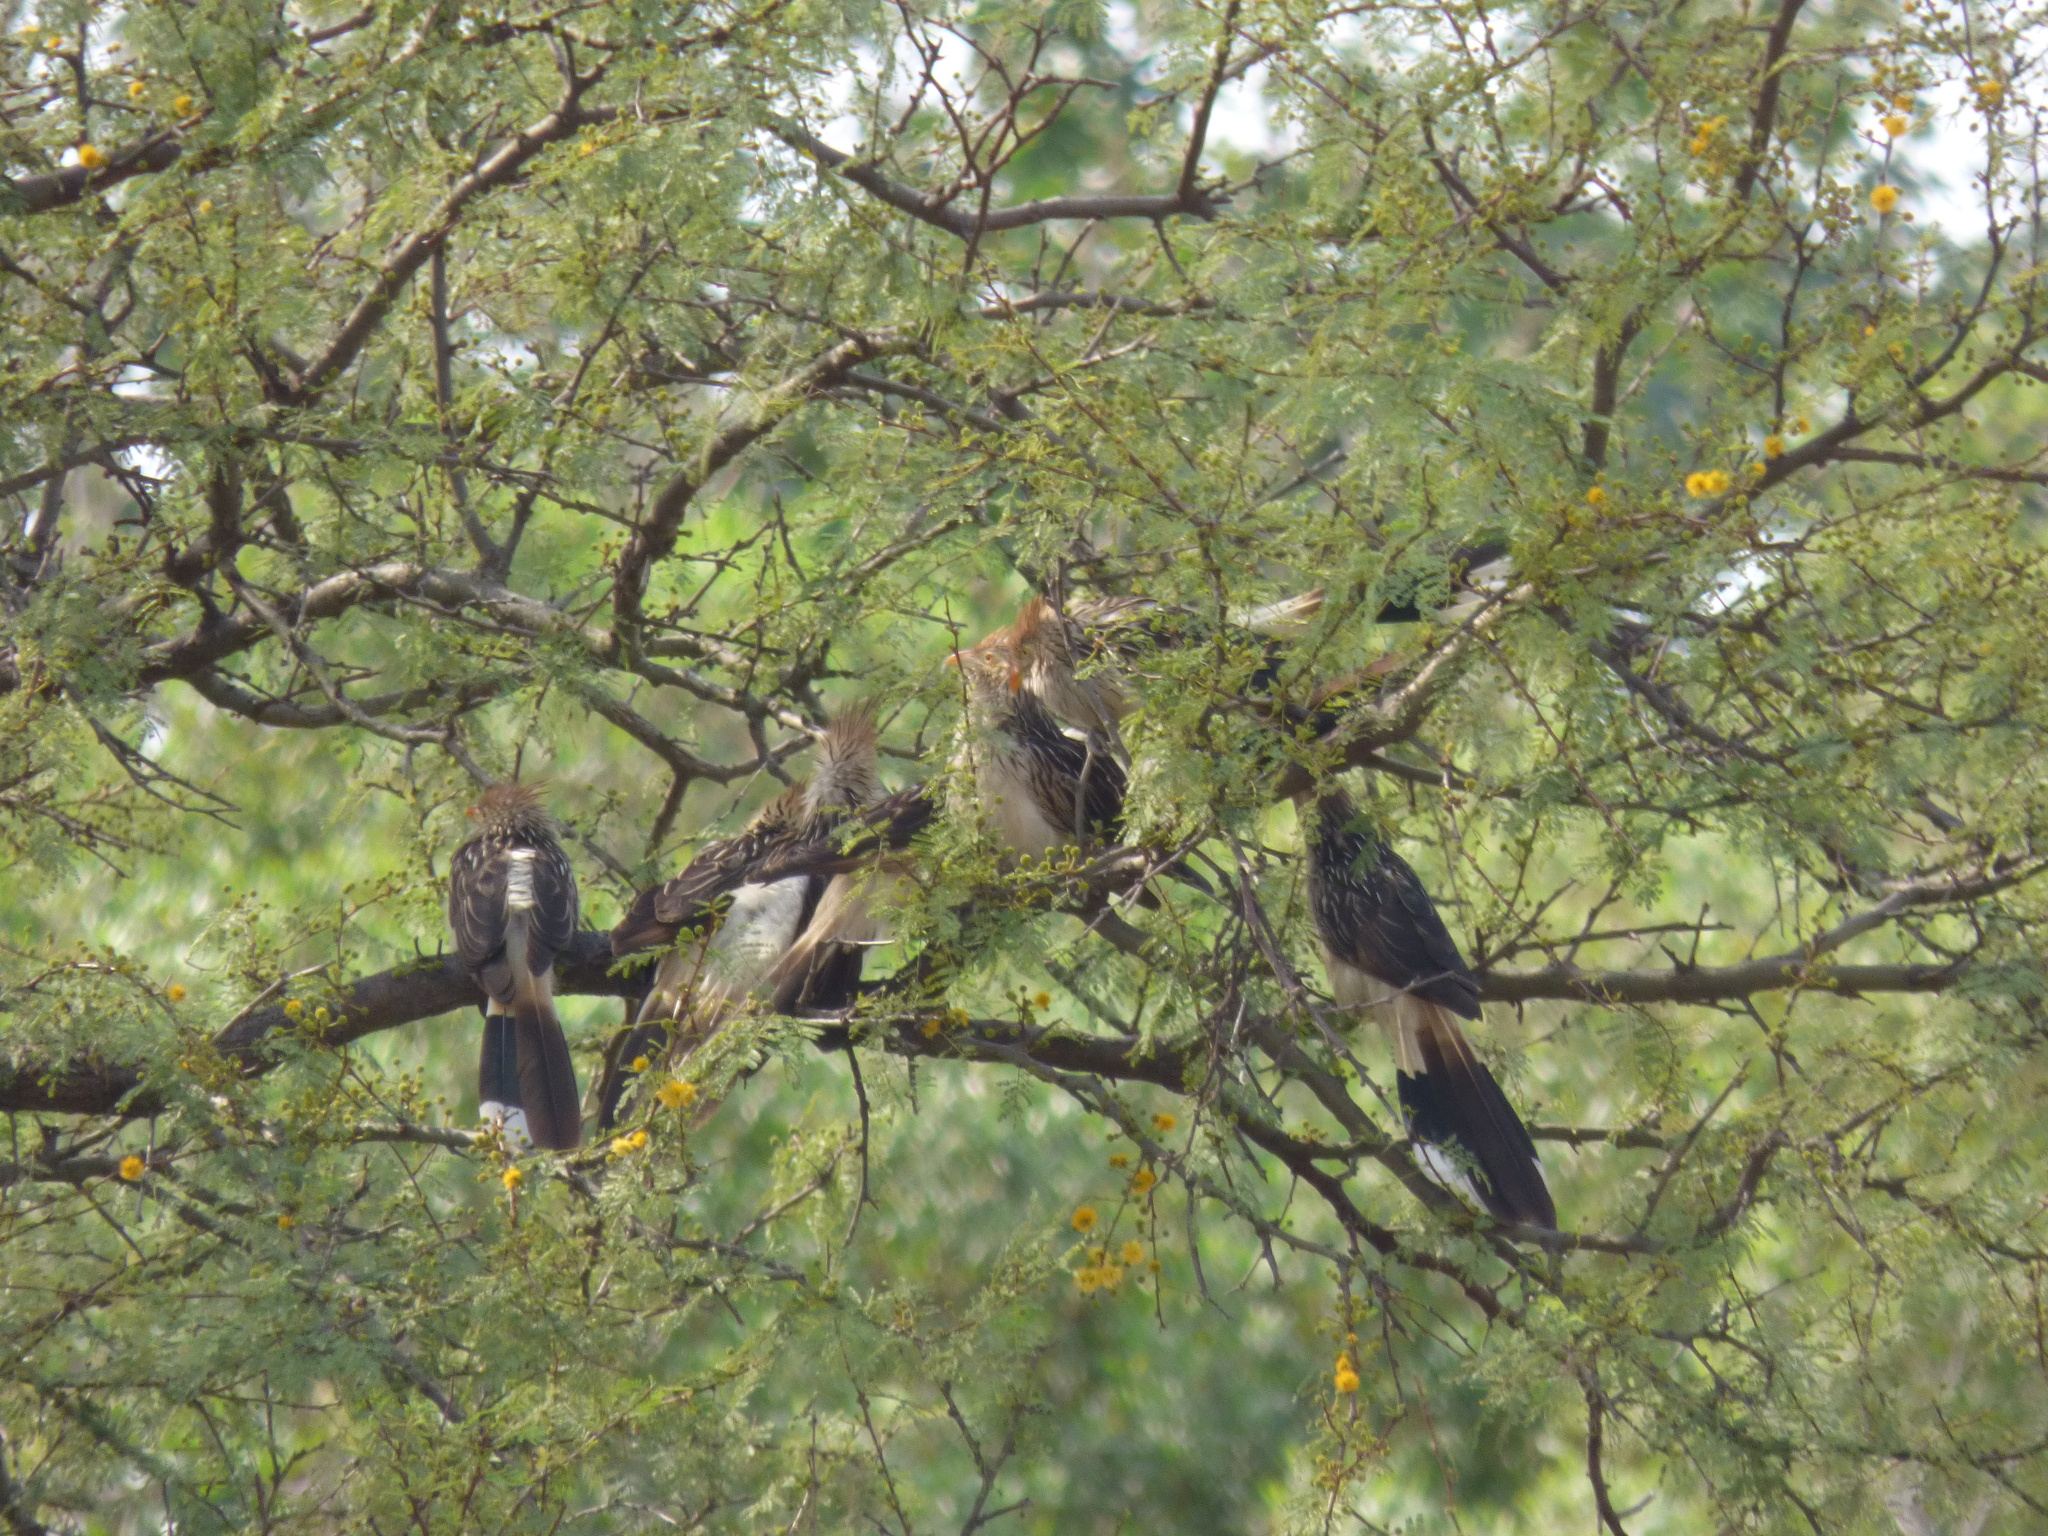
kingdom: Animalia
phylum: Chordata
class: Aves
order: Cuculiformes
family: Cuculidae
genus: Guira
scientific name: Guira guira
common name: Guira cuckoo
